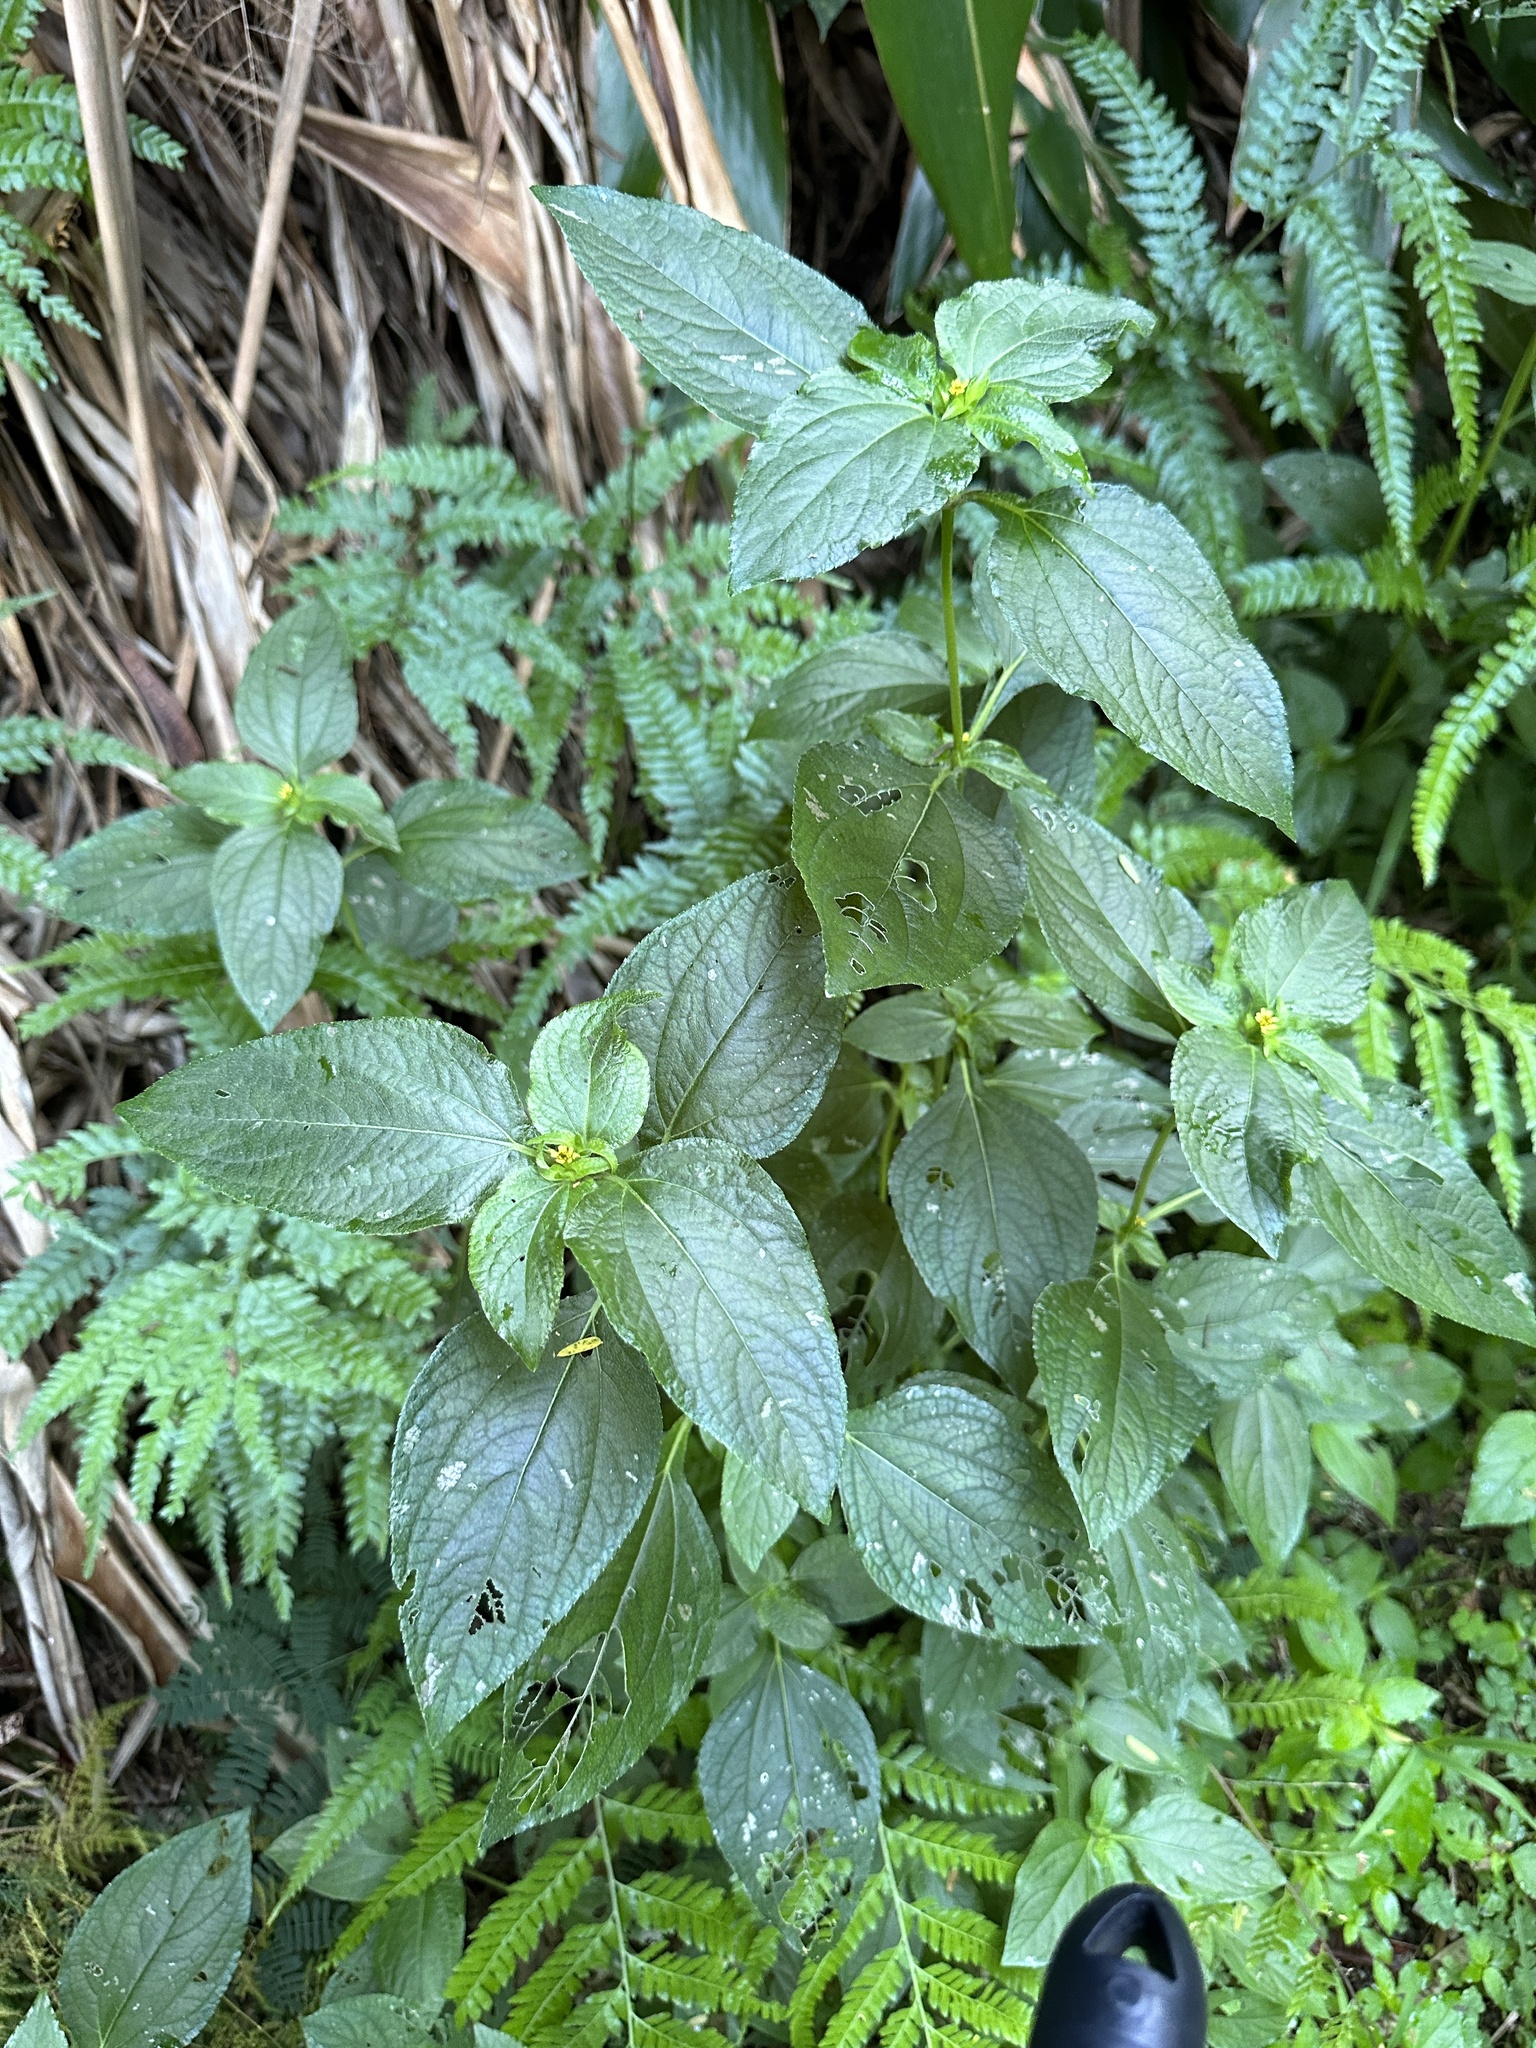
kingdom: Plantae
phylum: Tracheophyta
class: Magnoliopsida
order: Asterales
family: Asteraceae
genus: Synedrella
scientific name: Synedrella nodiflora
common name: Nodeweed
